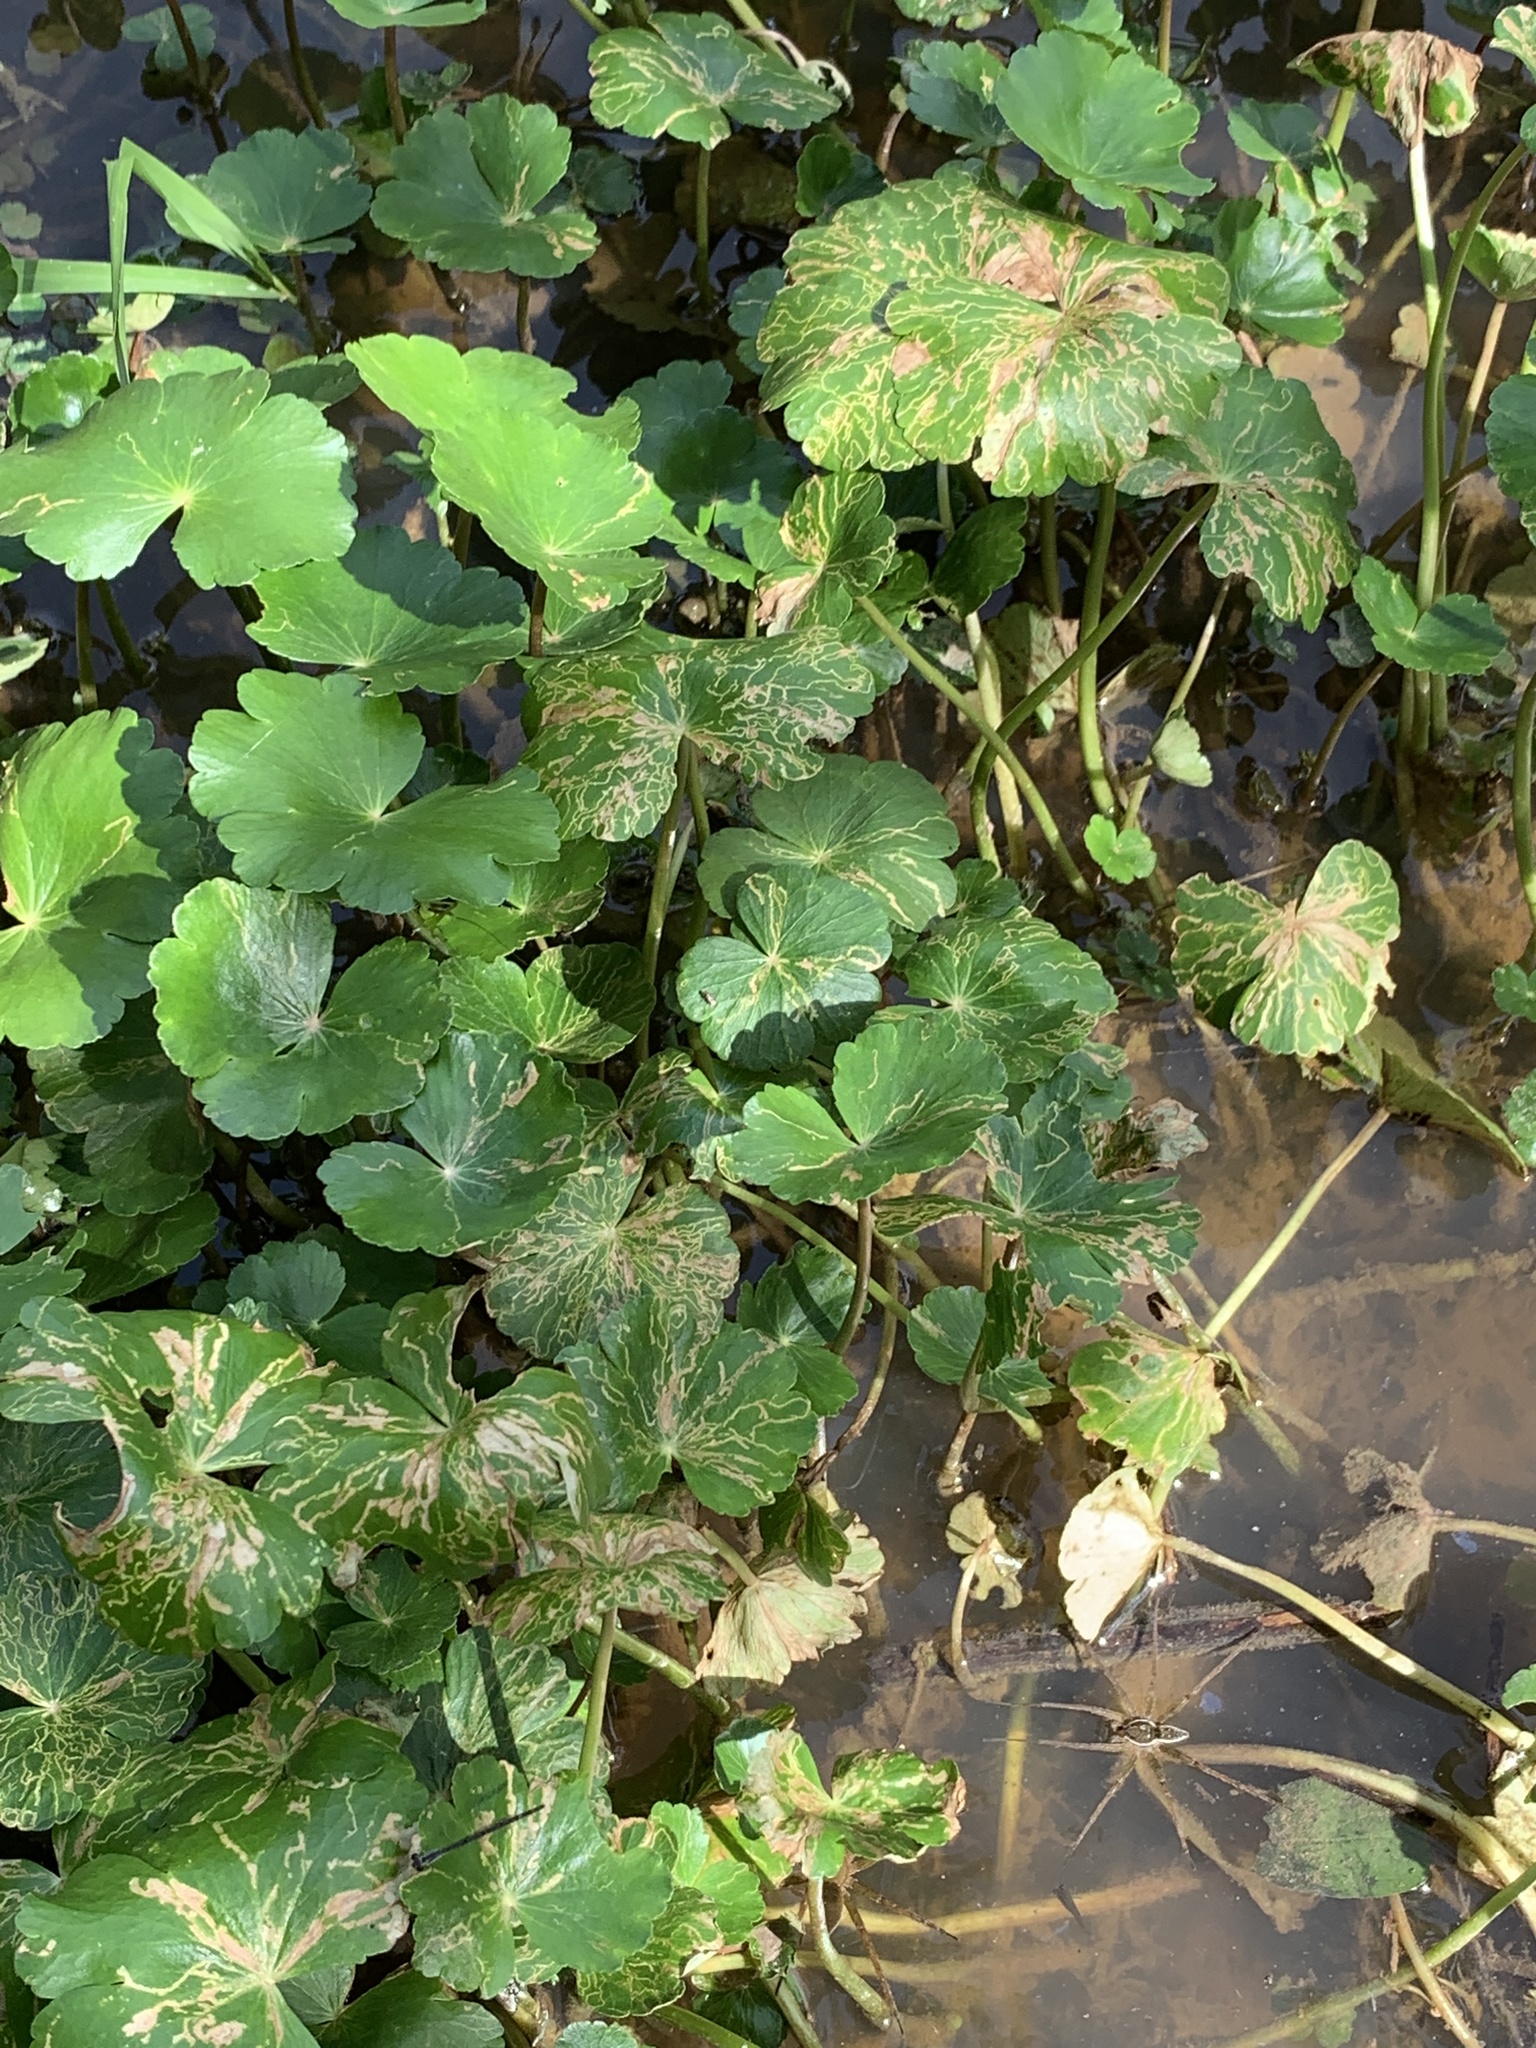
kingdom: Plantae
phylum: Tracheophyta
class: Magnoliopsida
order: Apiales
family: Araliaceae
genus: Hydrocotyle
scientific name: Hydrocotyle ranunculoides
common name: Floating pennywort
